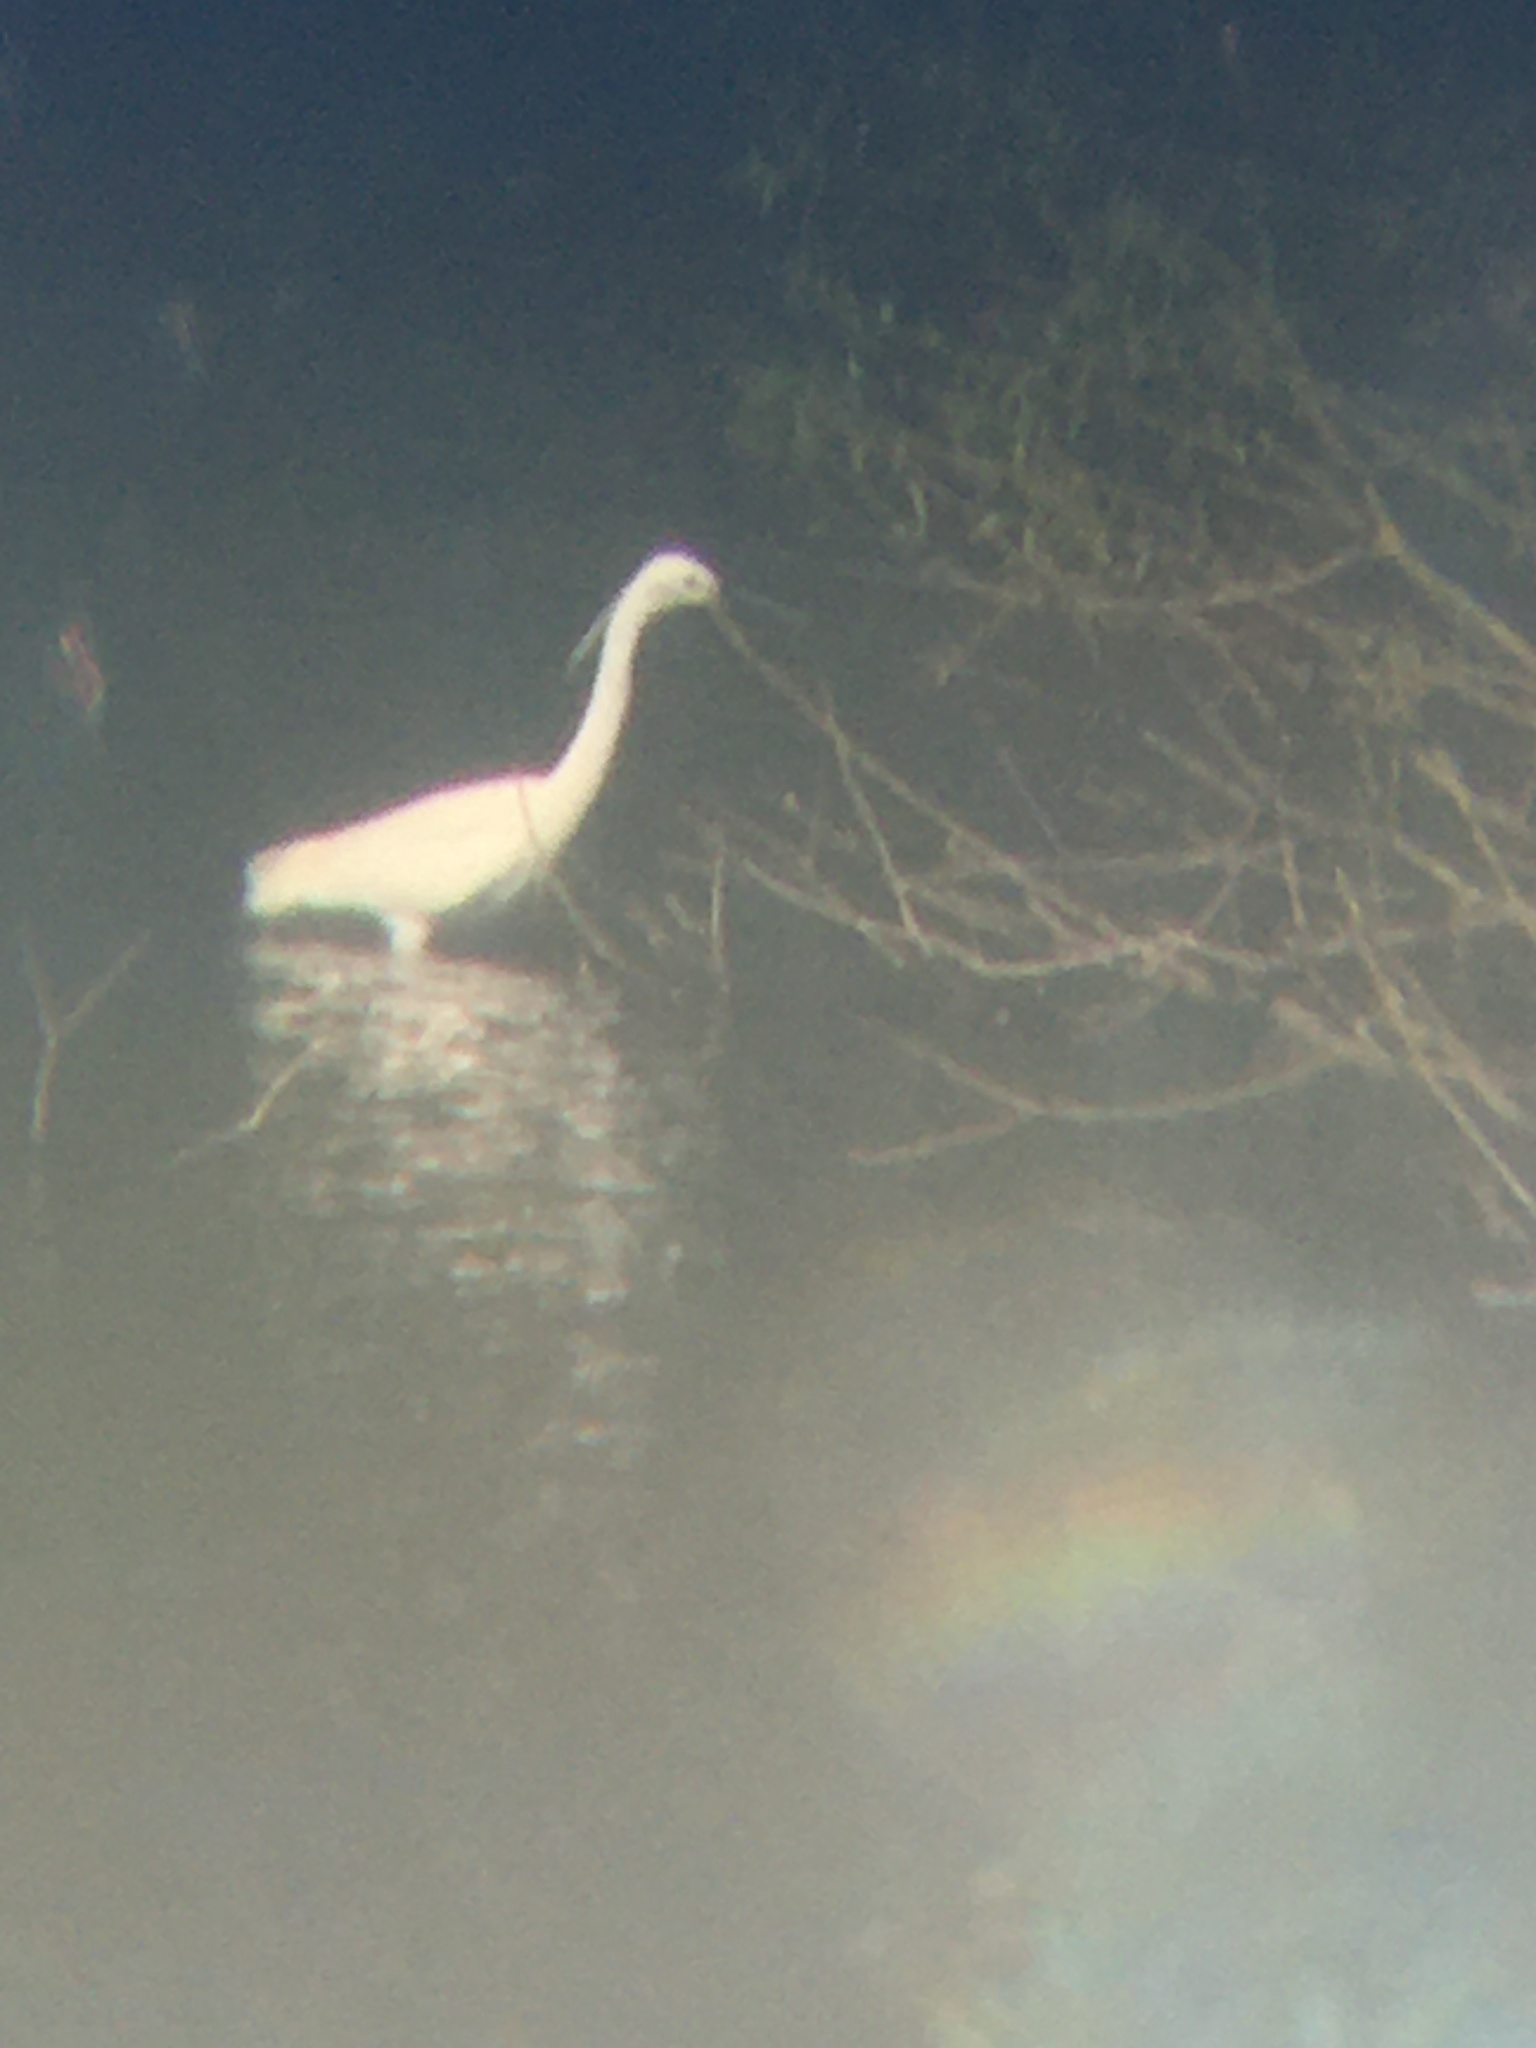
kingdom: Animalia
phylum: Chordata
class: Aves
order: Pelecaniformes
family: Ardeidae
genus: Egretta
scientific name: Egretta garzetta
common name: Little egret
